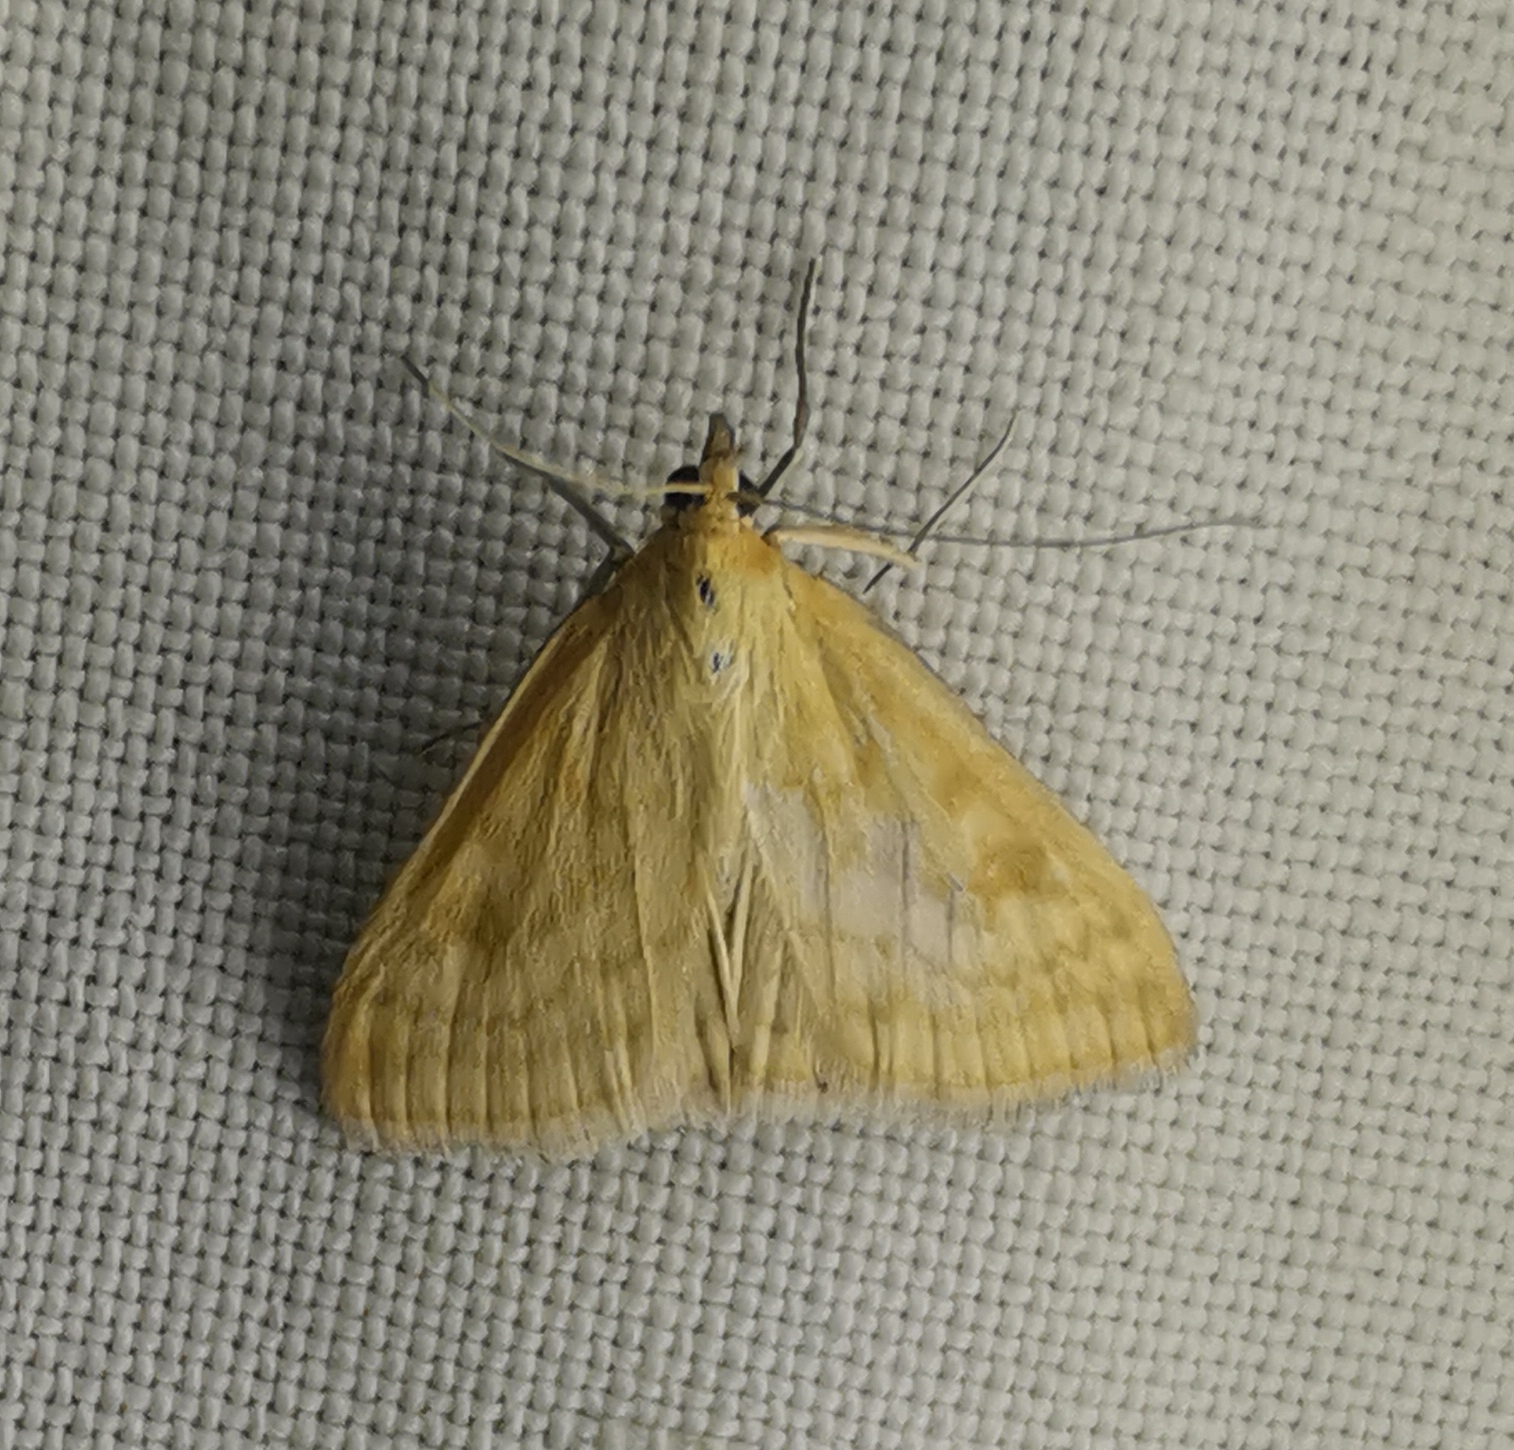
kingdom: Animalia
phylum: Arthropoda
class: Insecta
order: Lepidoptera
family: Crambidae
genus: Sitochroa
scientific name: Sitochroa verticalis
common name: Lesser pearl
